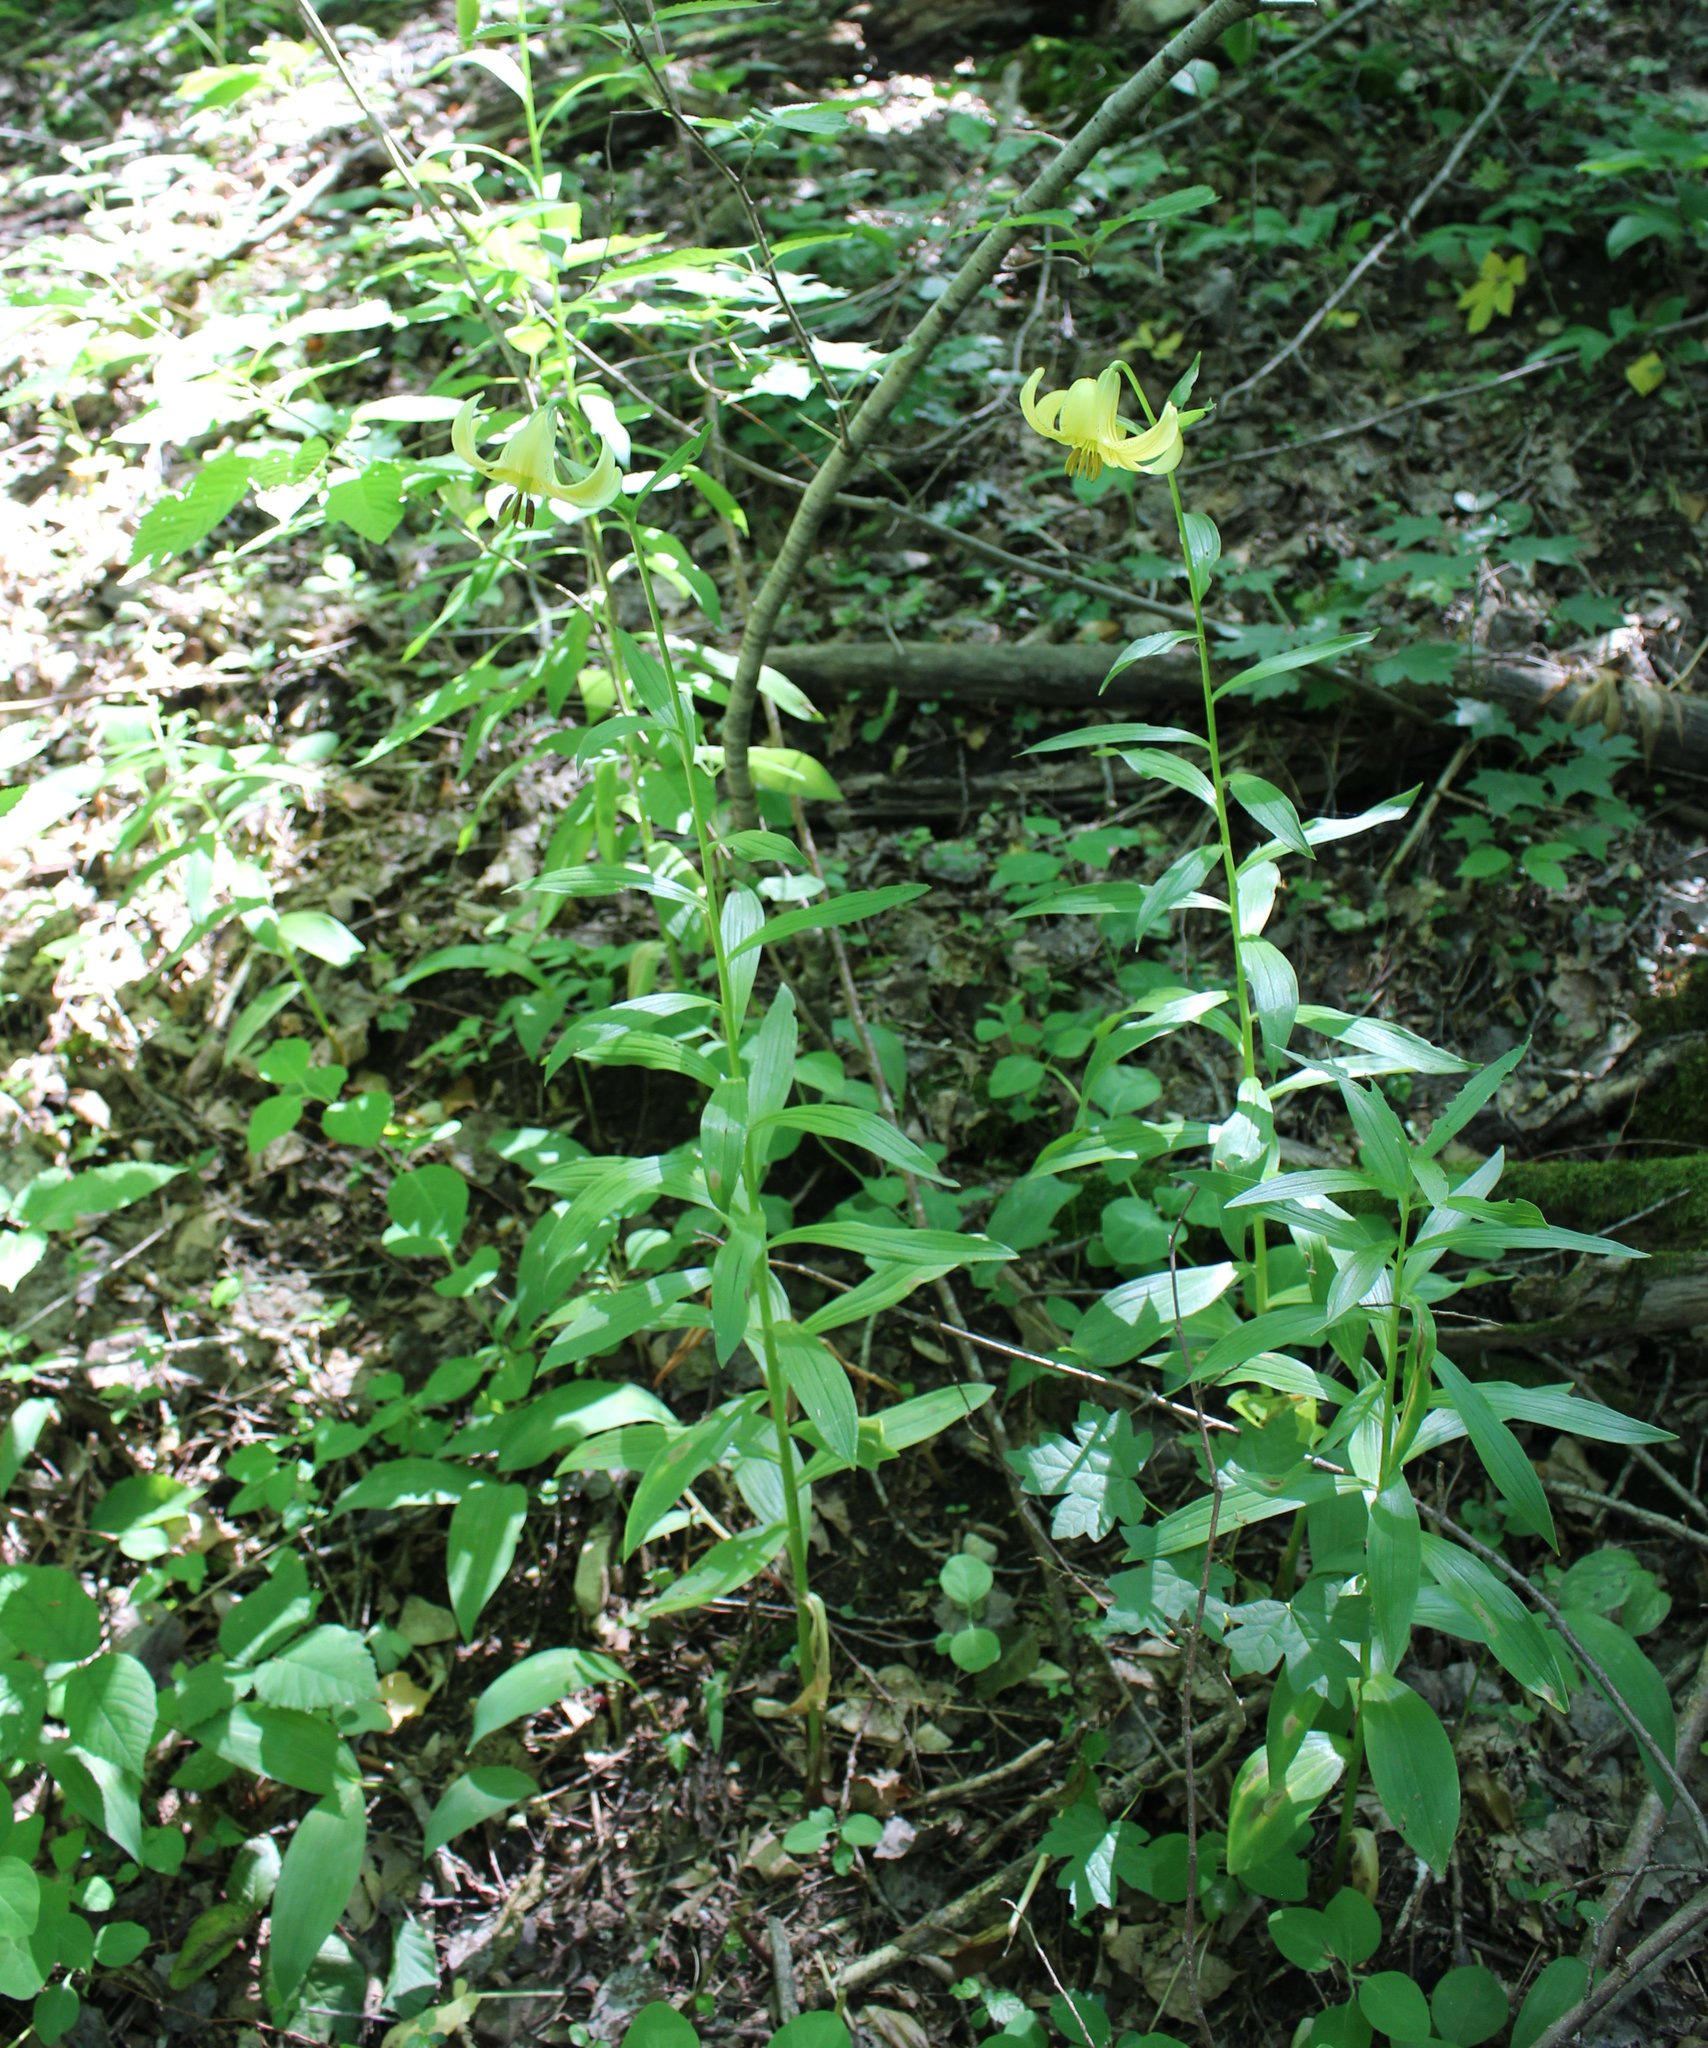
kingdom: Plantae
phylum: Tracheophyta
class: Liliopsida
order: Liliales
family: Liliaceae
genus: Lilium
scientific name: Lilium monadelphum
